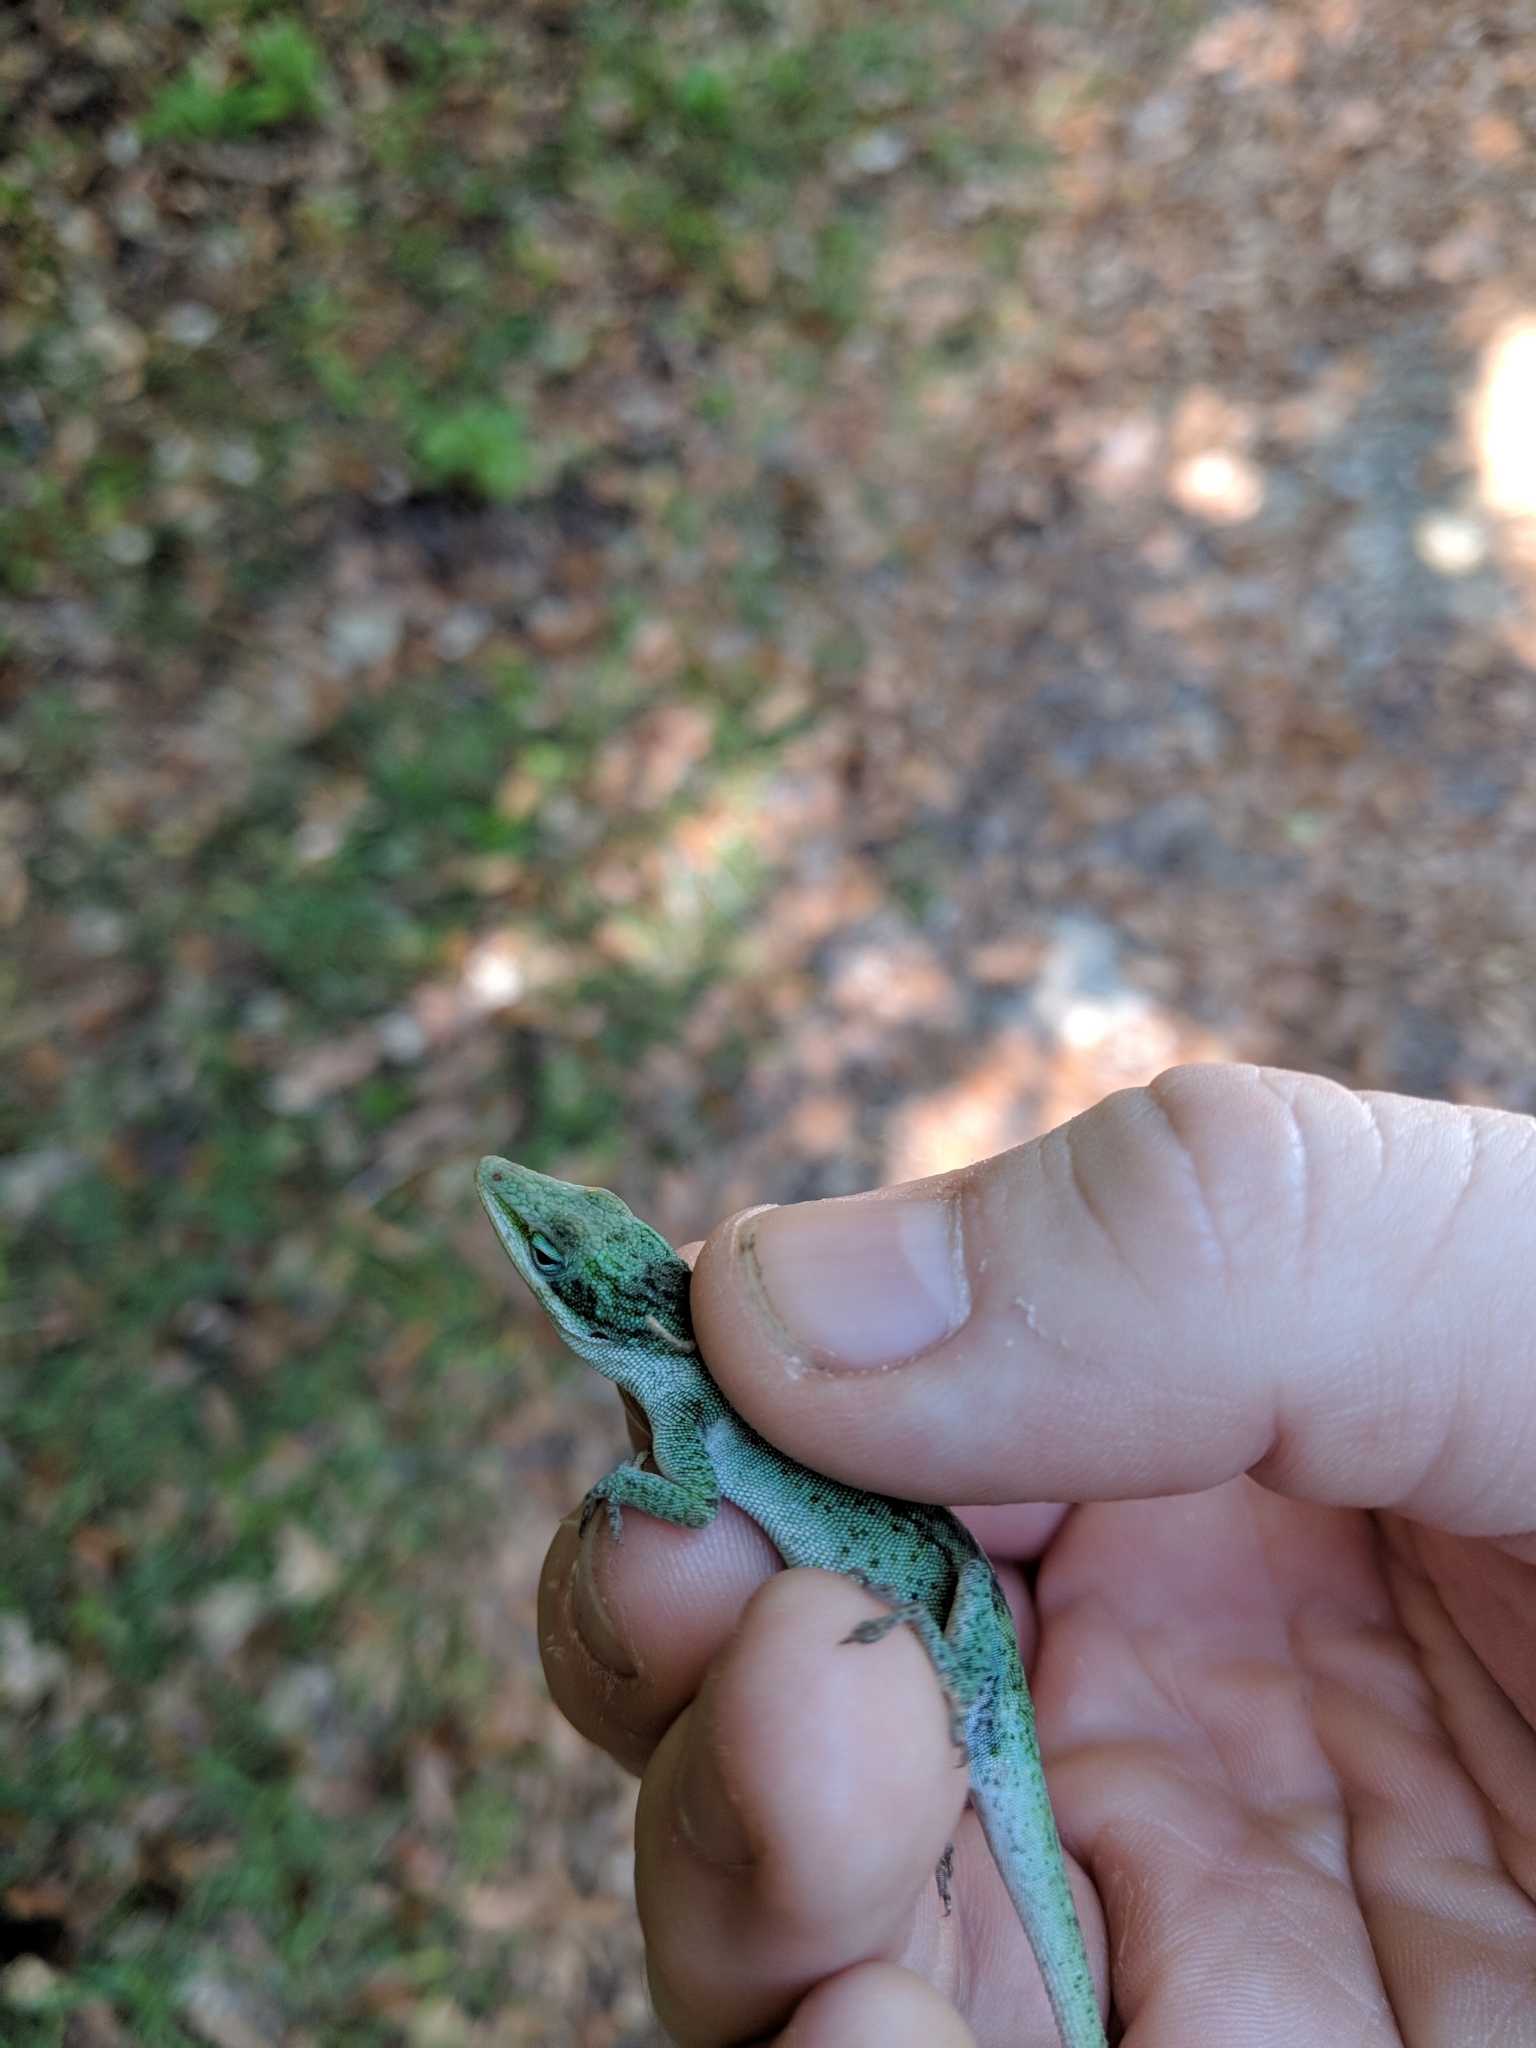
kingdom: Animalia
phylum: Chordata
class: Squamata
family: Dactyloidae
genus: Anolis
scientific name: Anolis carolinensis
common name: Green anole
